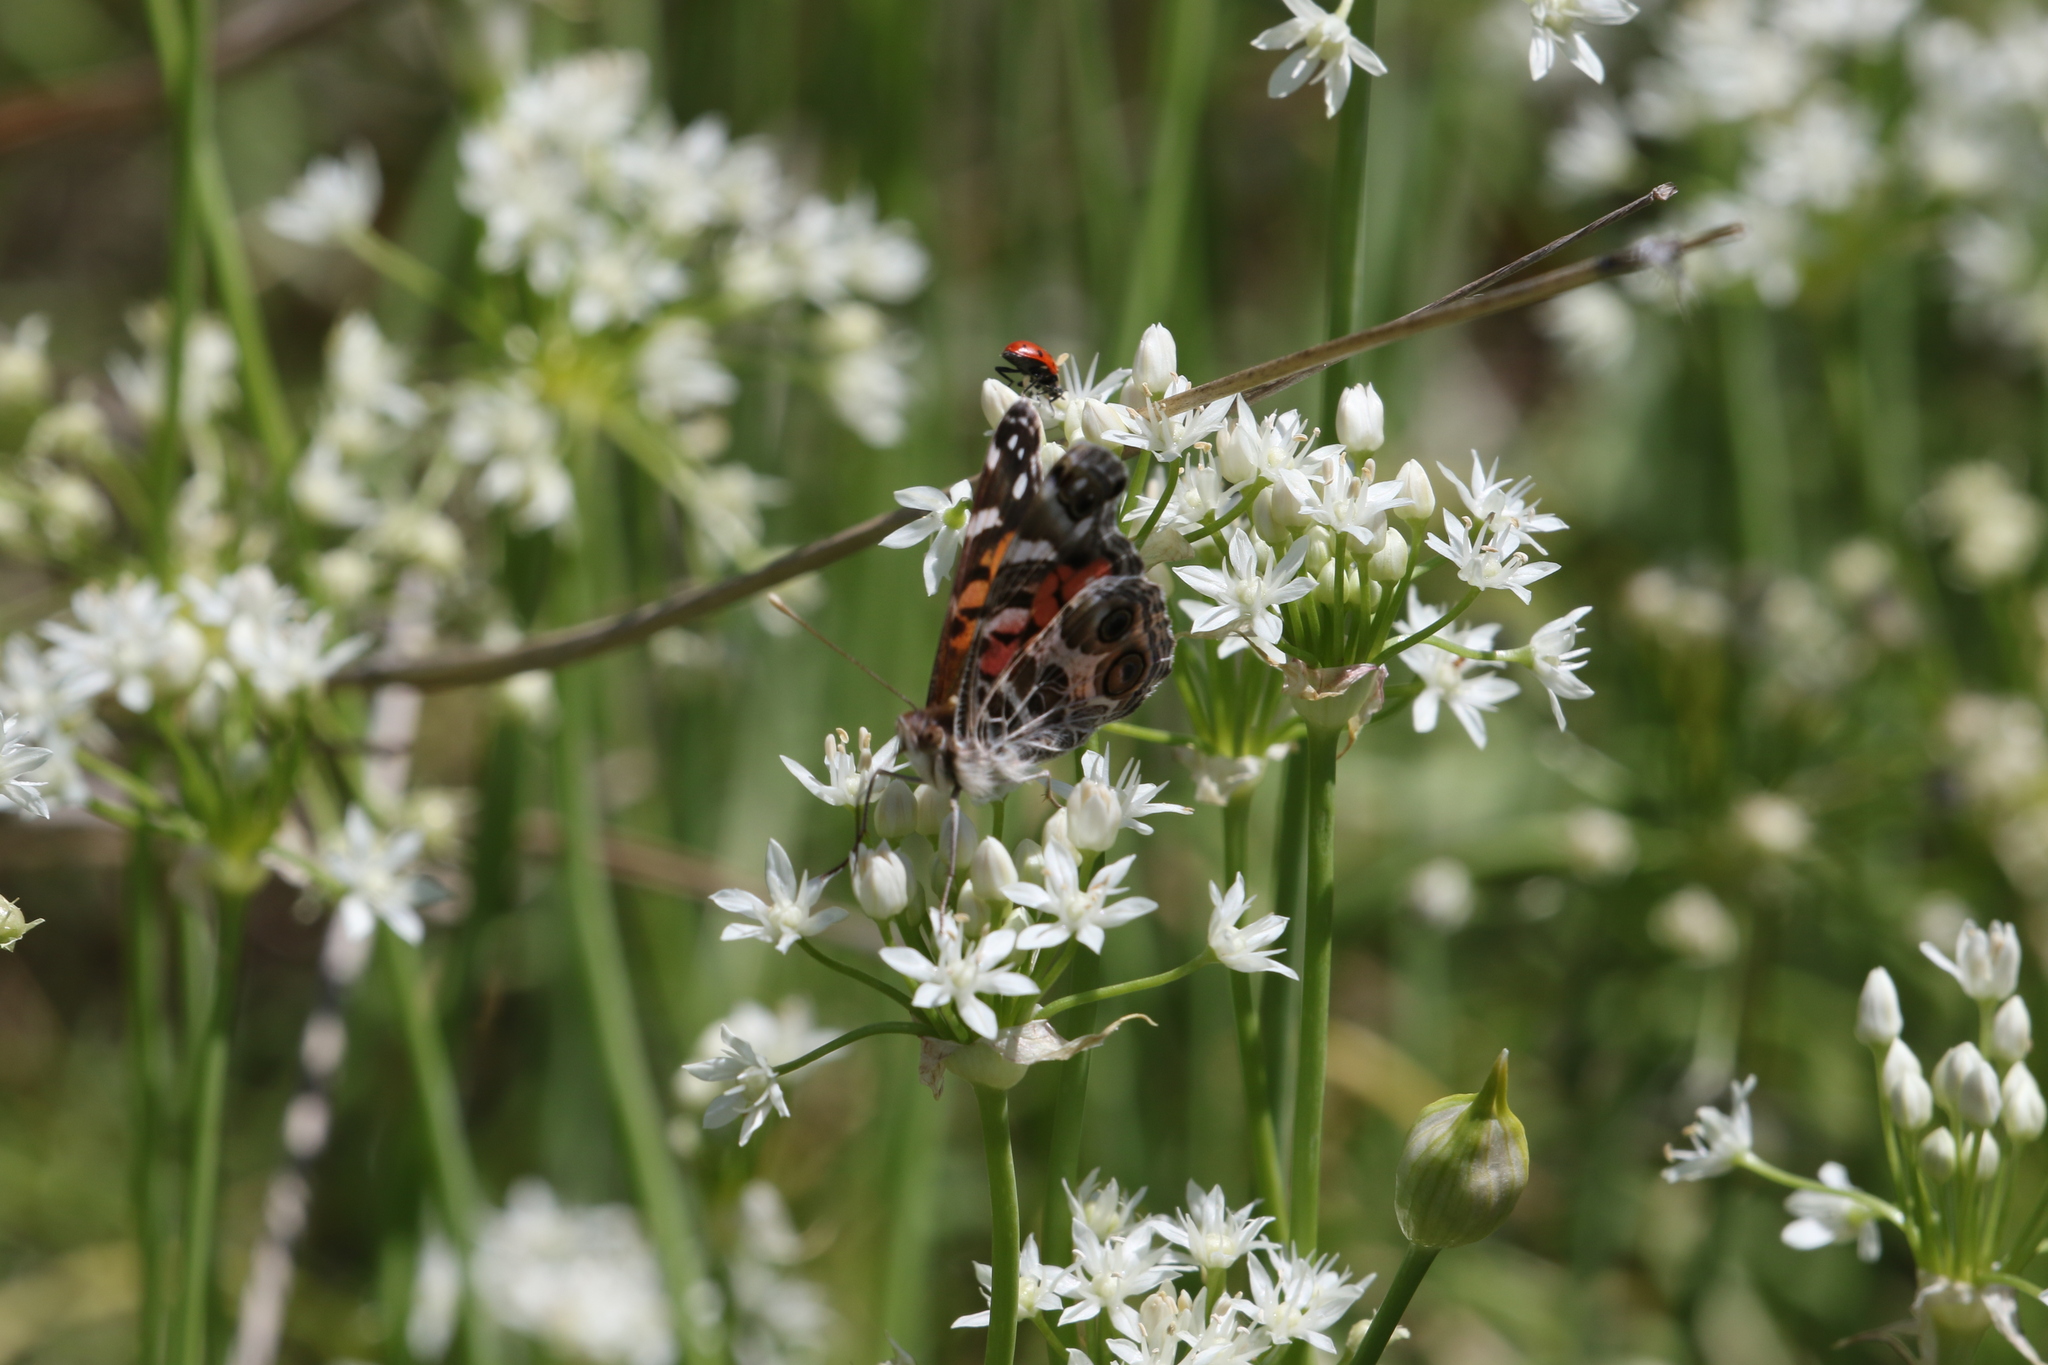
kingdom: Animalia
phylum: Arthropoda
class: Insecta
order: Lepidoptera
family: Nymphalidae
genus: Vanessa
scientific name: Vanessa virginiensis
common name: American lady
